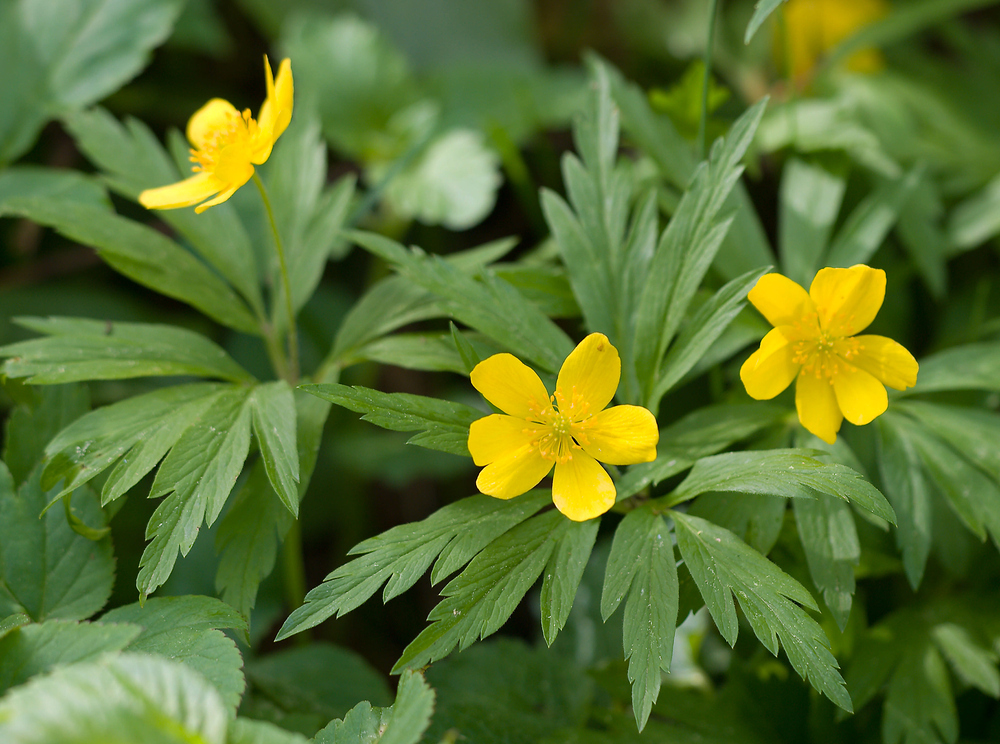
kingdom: Plantae
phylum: Tracheophyta
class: Magnoliopsida
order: Ranunculales
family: Ranunculaceae
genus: Anemone
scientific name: Anemone ranunculoides
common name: Yellow anemone
